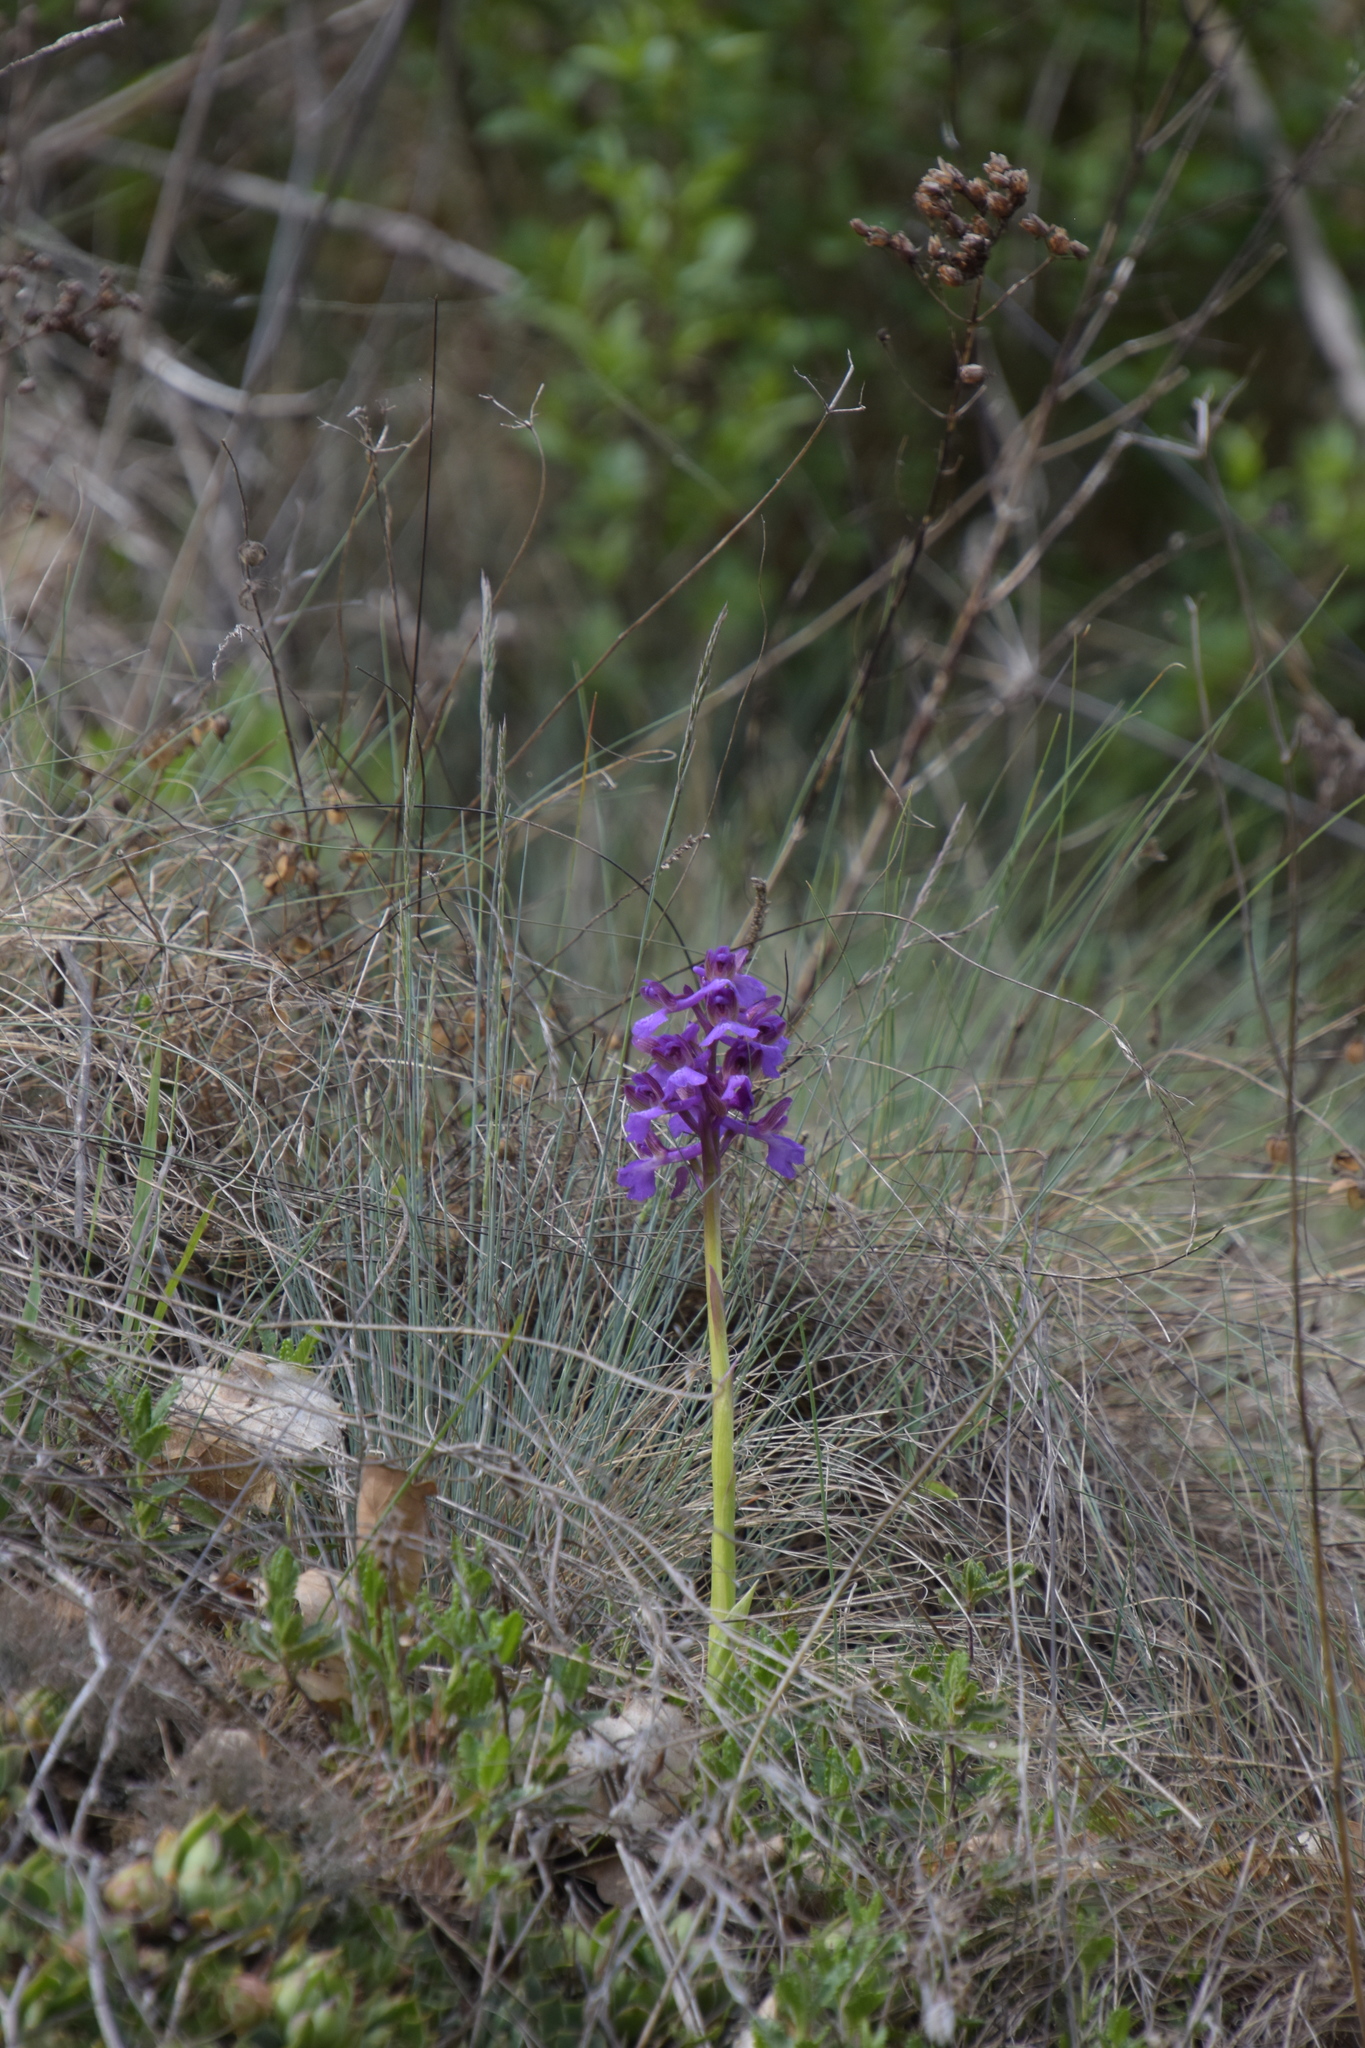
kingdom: Plantae
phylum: Tracheophyta
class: Liliopsida
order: Asparagales
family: Orchidaceae
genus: Anacamptis
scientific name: Anacamptis morio
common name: Green-winged orchid
